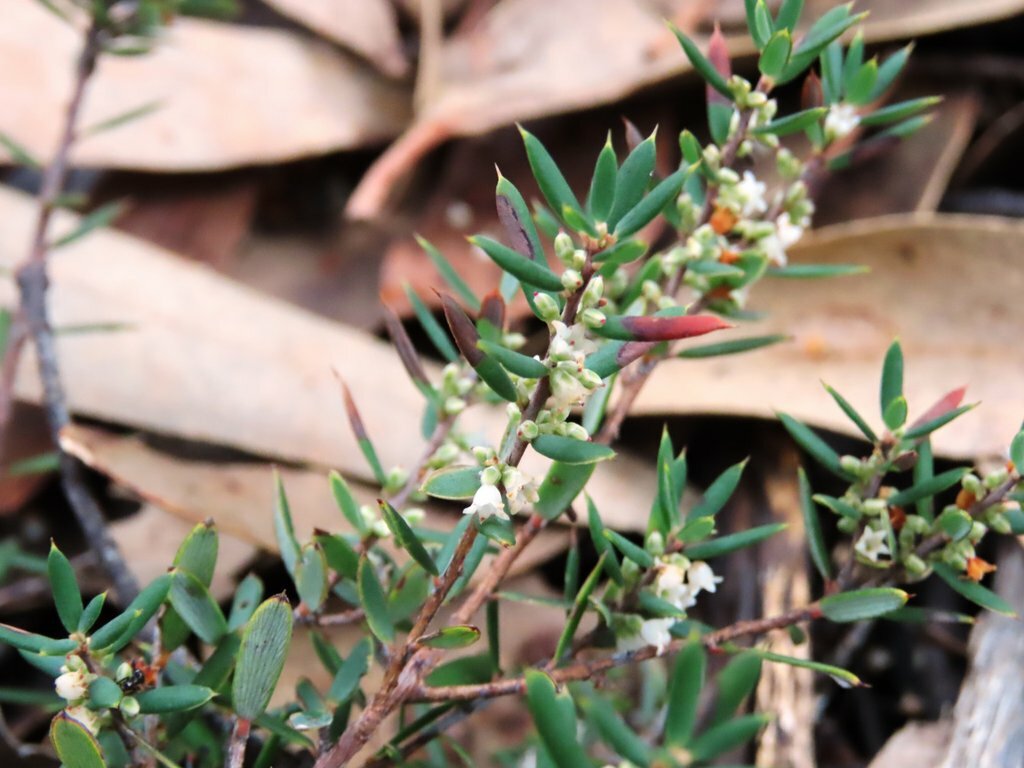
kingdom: Plantae
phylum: Tracheophyta
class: Magnoliopsida
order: Ericales
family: Ericaceae
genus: Monotoca
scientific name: Monotoca scoparia
